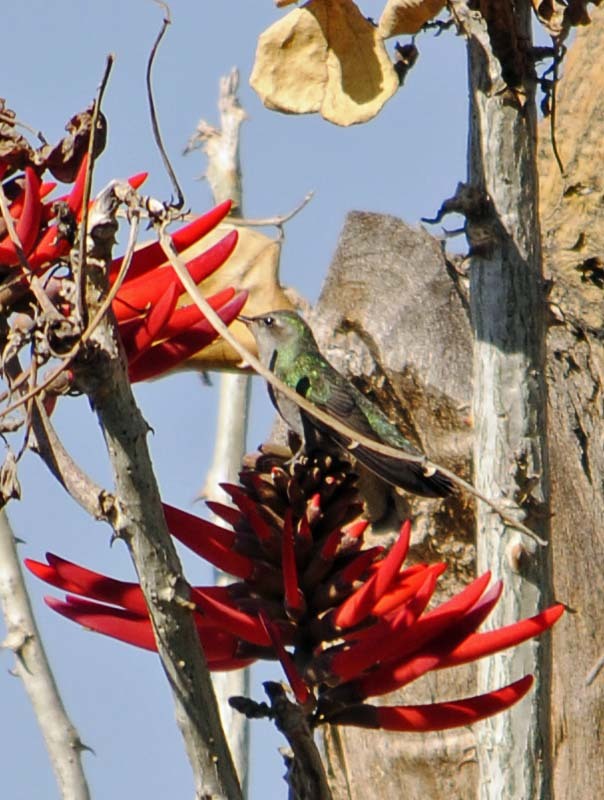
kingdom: Animalia
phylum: Chordata
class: Aves
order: Apodiformes
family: Trochilidae
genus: Cynanthus
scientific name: Cynanthus latirostris
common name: Broad-billed hummingbird
